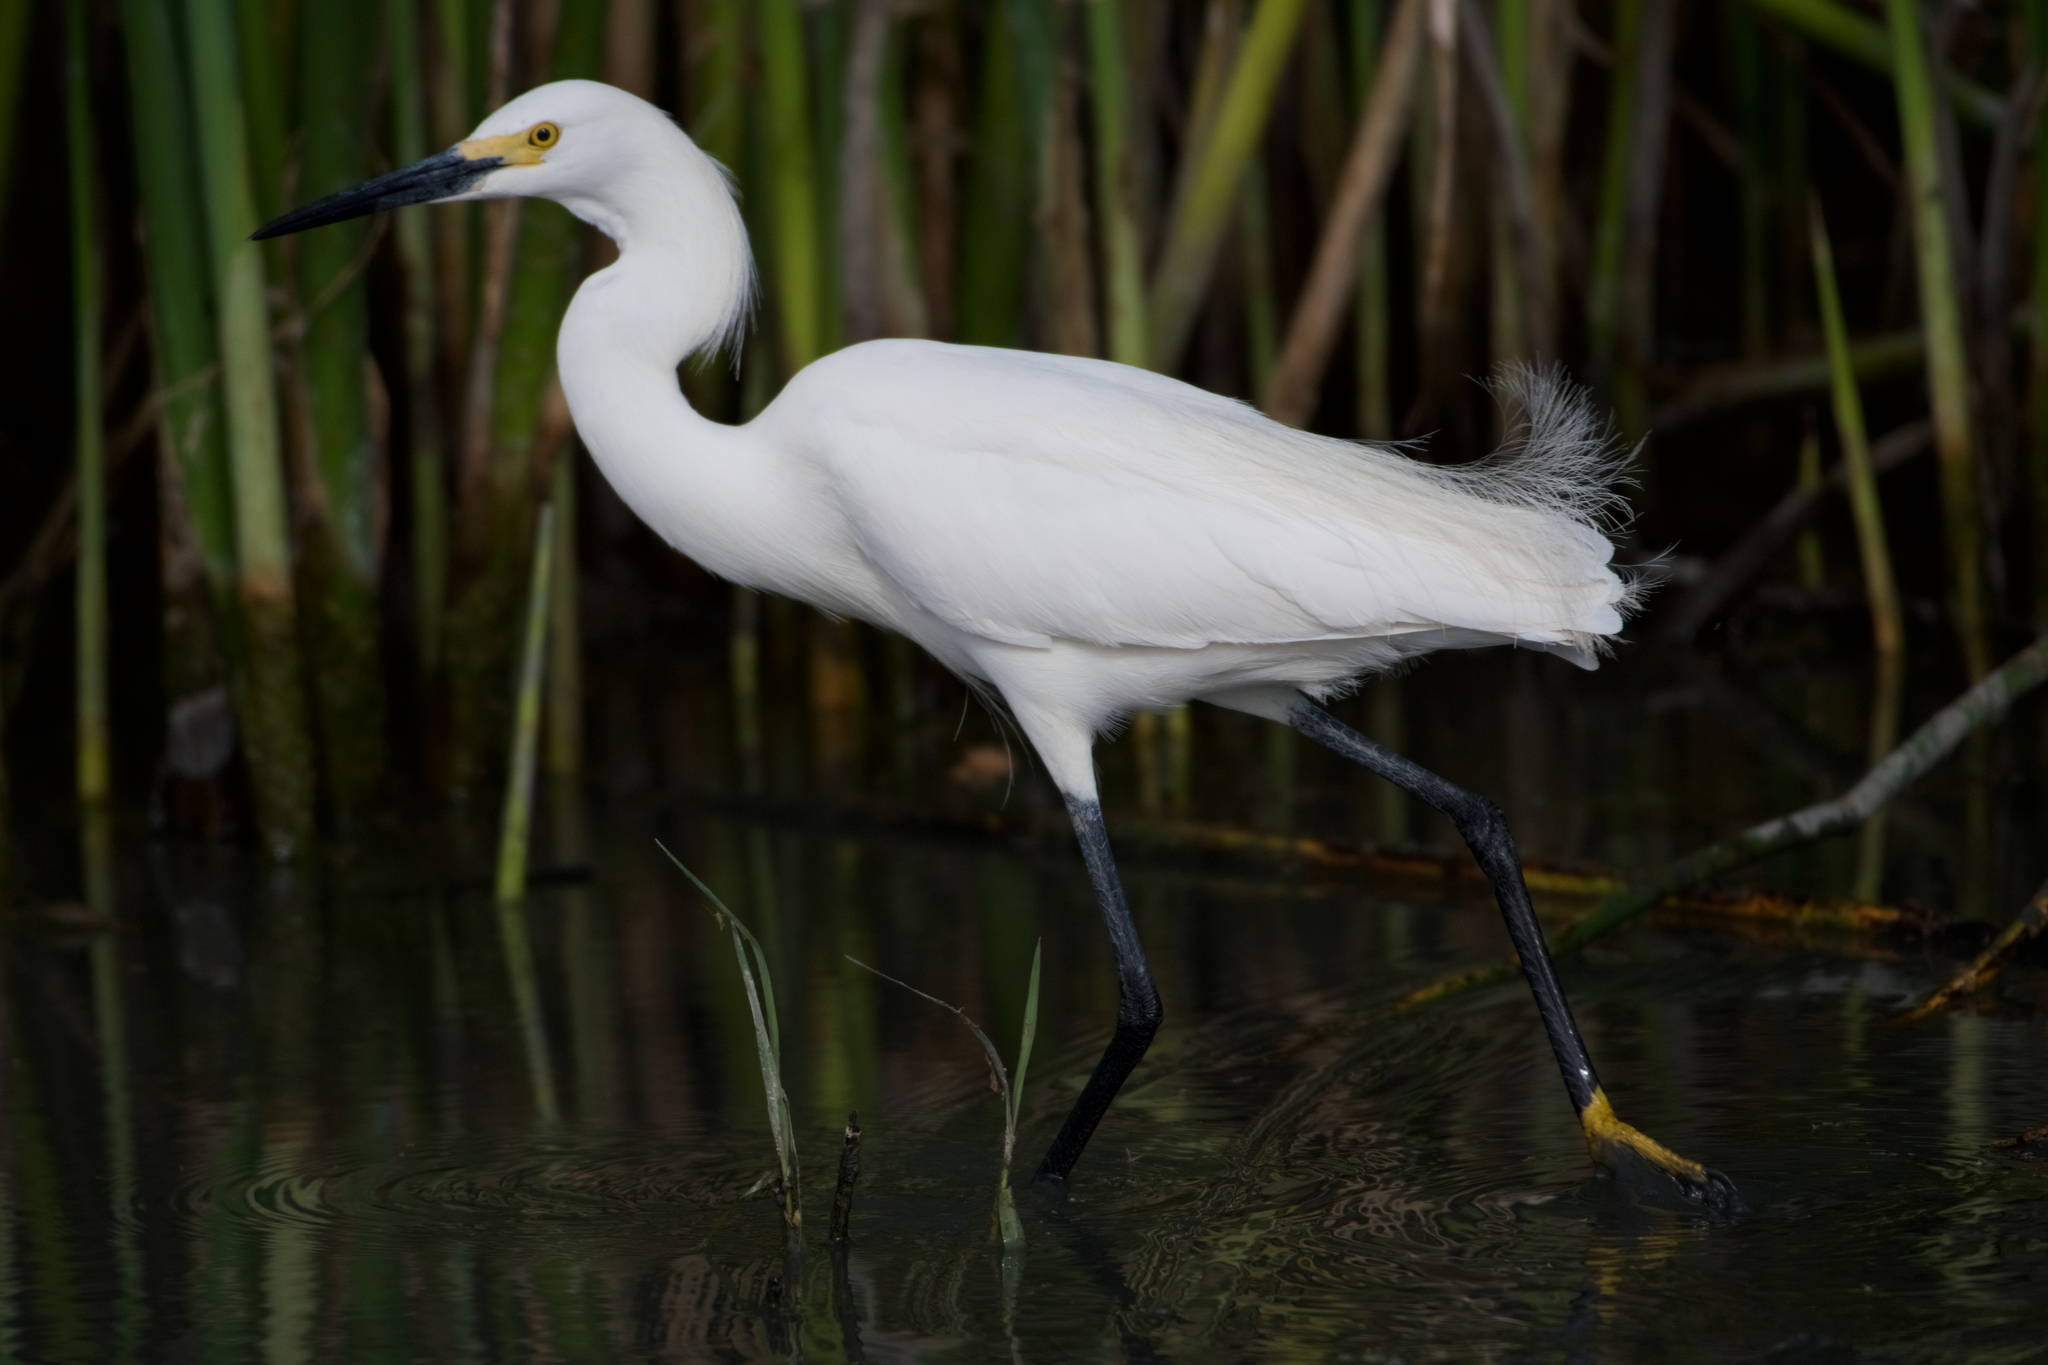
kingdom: Animalia
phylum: Chordata
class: Aves
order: Pelecaniformes
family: Ardeidae
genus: Egretta
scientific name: Egretta thula
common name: Snowy egret
